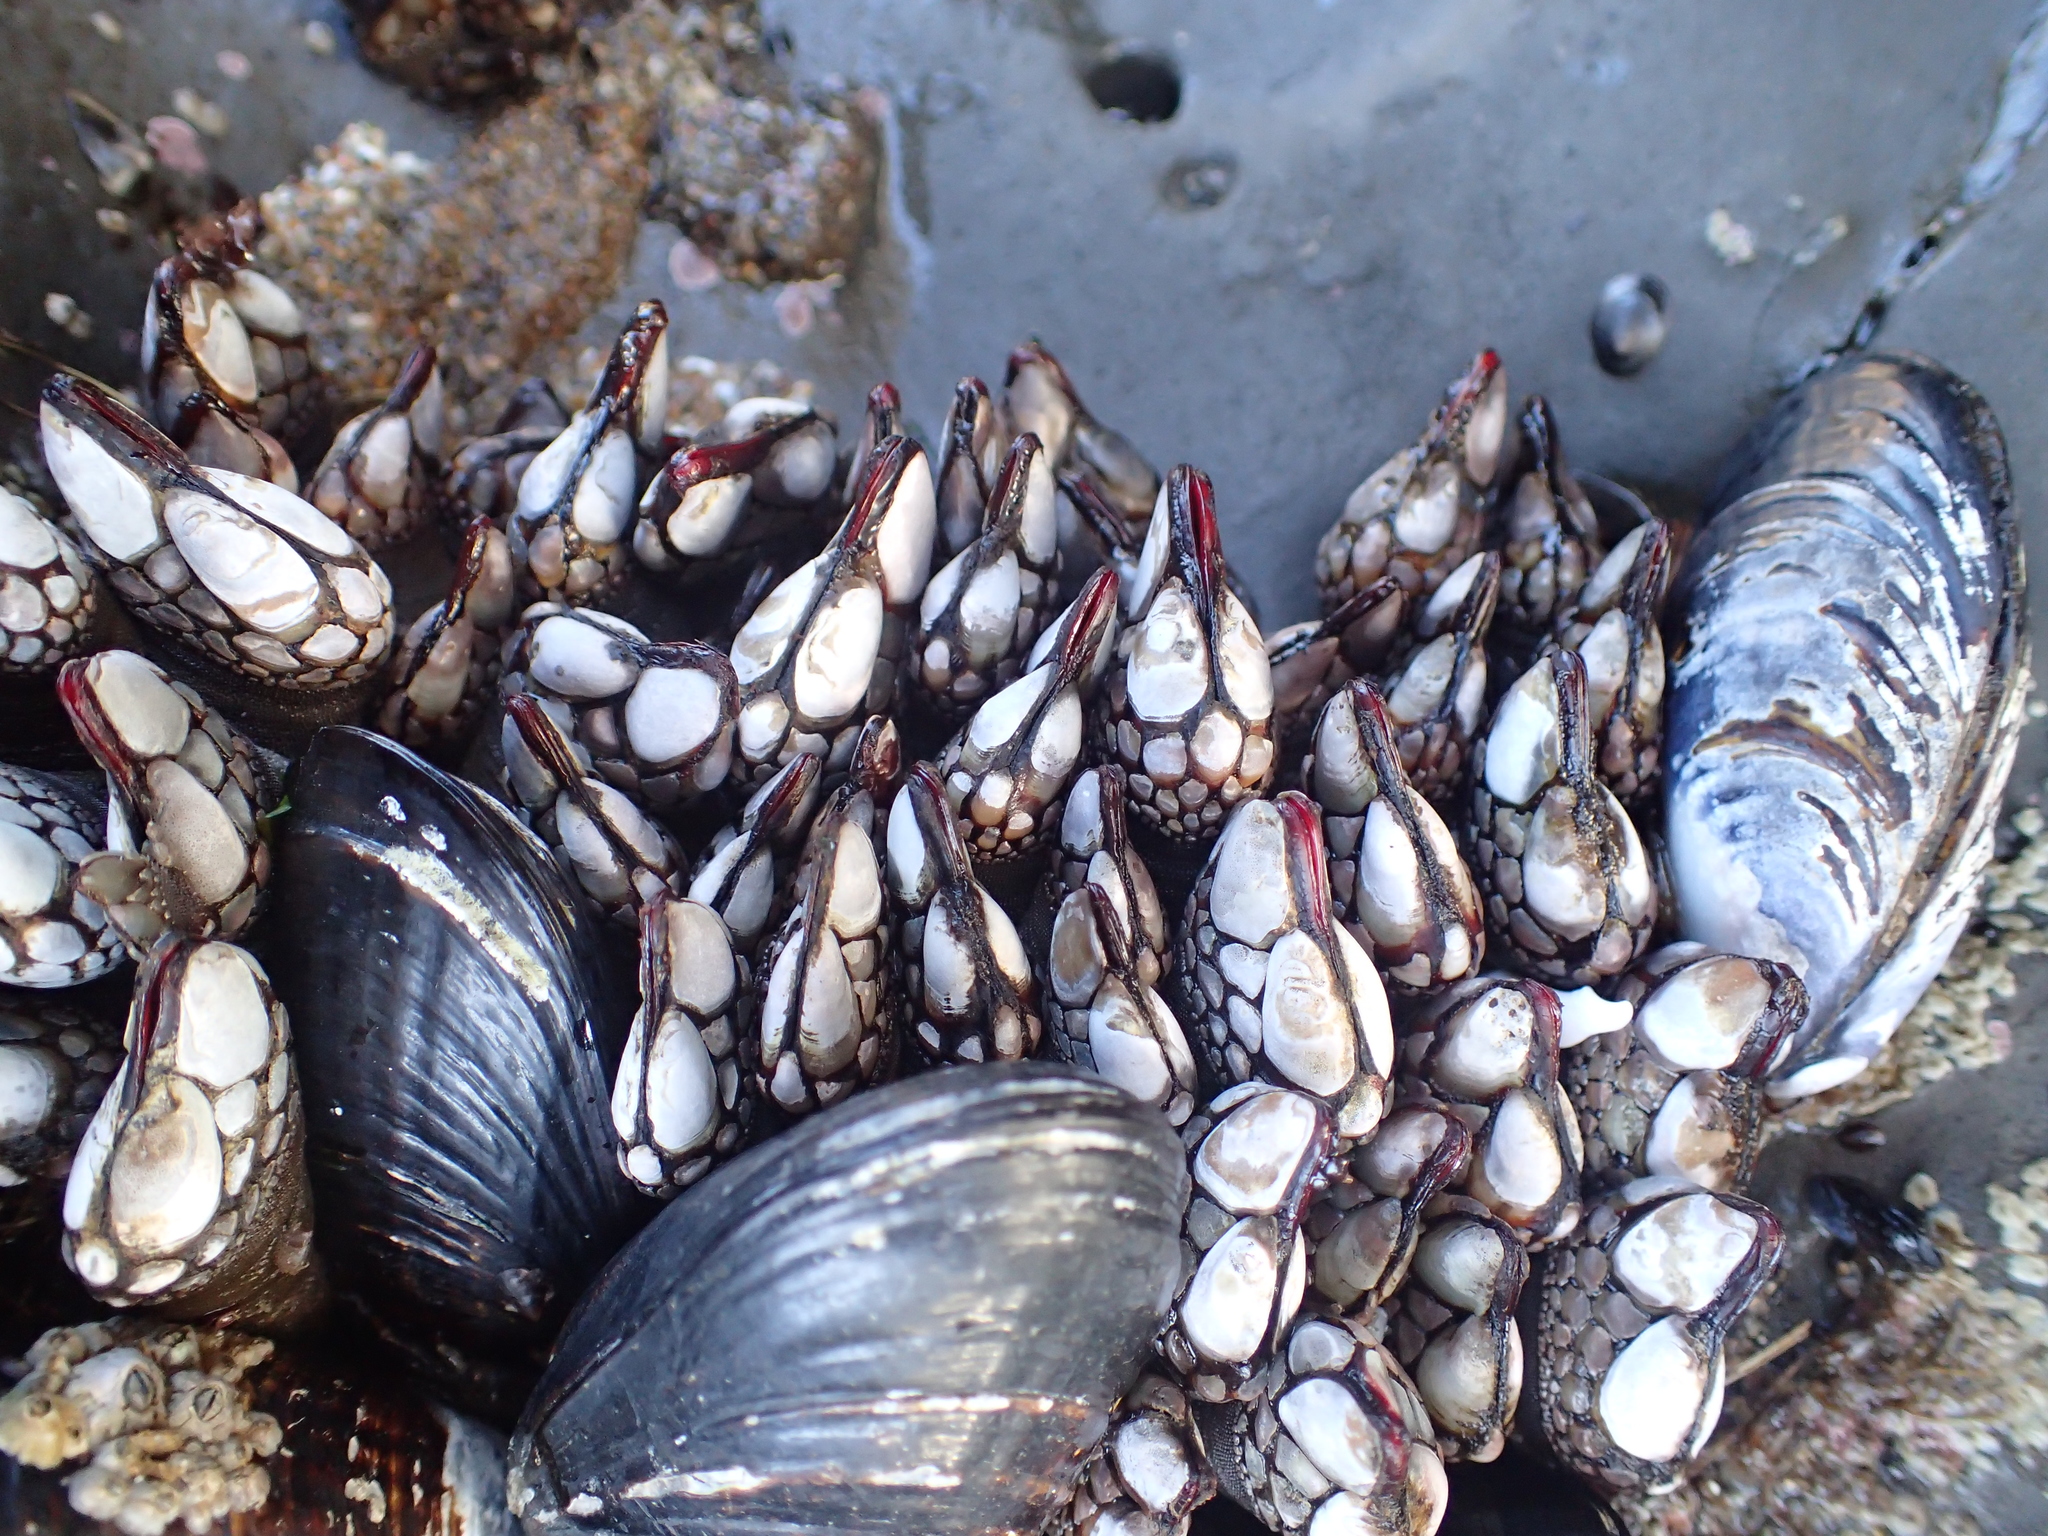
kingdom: Animalia
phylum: Arthropoda
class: Maxillopoda
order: Pedunculata
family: Pollicipedidae
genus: Pollicipes
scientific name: Pollicipes polymerus
